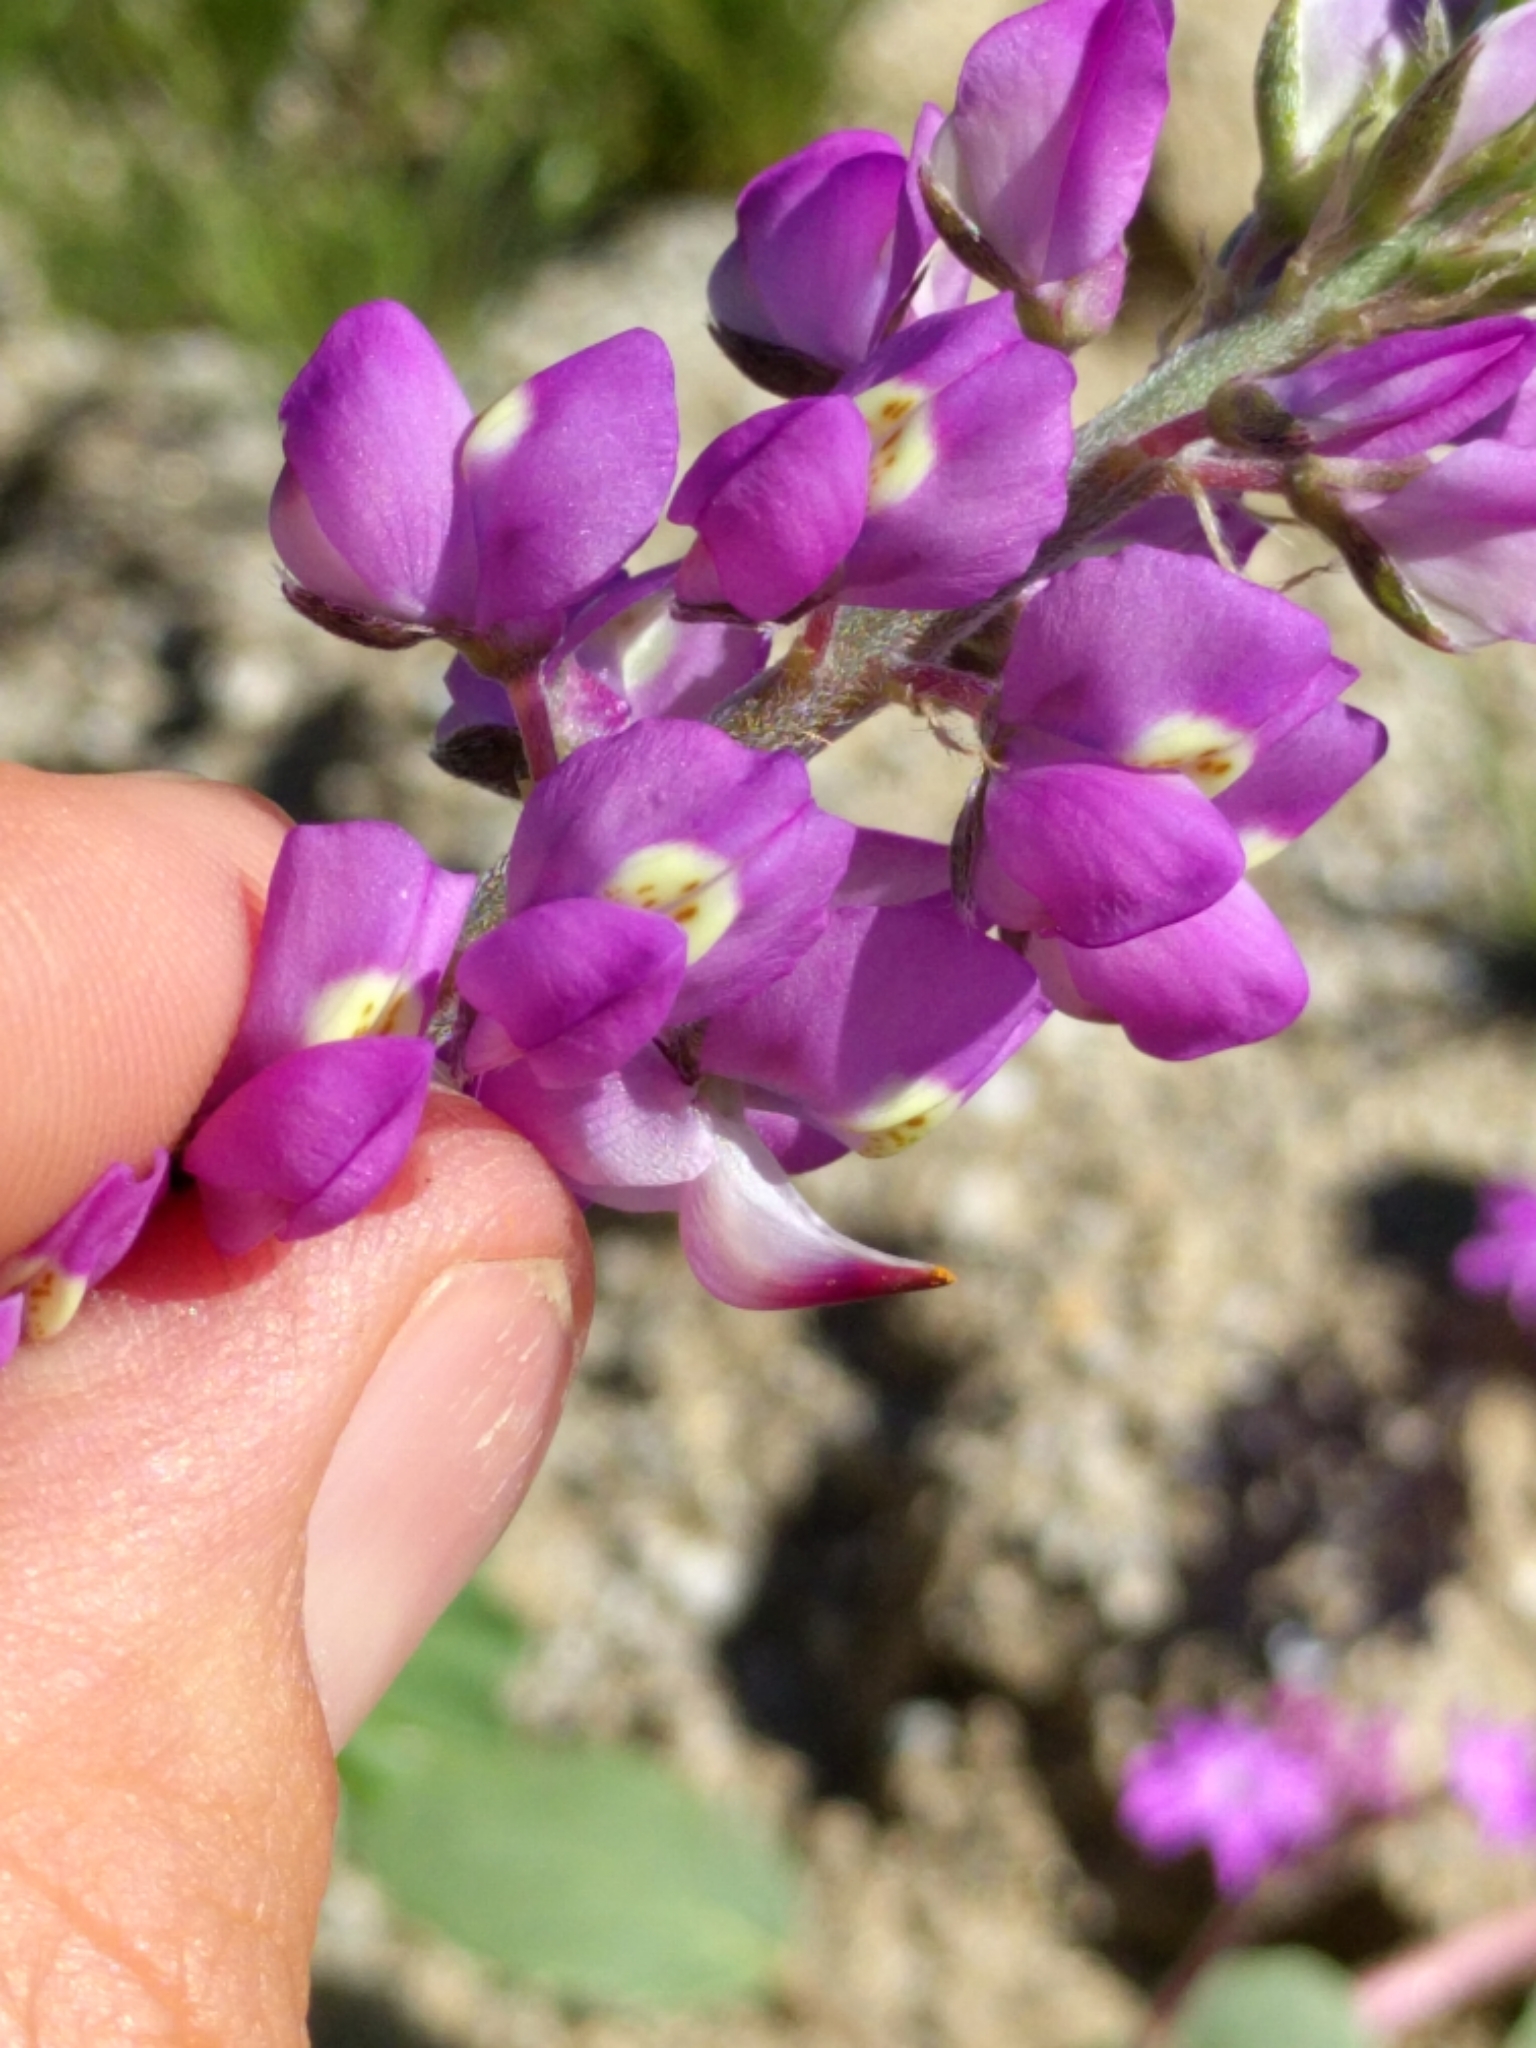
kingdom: Plantae
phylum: Tracheophyta
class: Magnoliopsida
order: Fabales
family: Fabaceae
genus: Lupinus
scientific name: Lupinus arizonicus
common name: Arizona lupine
